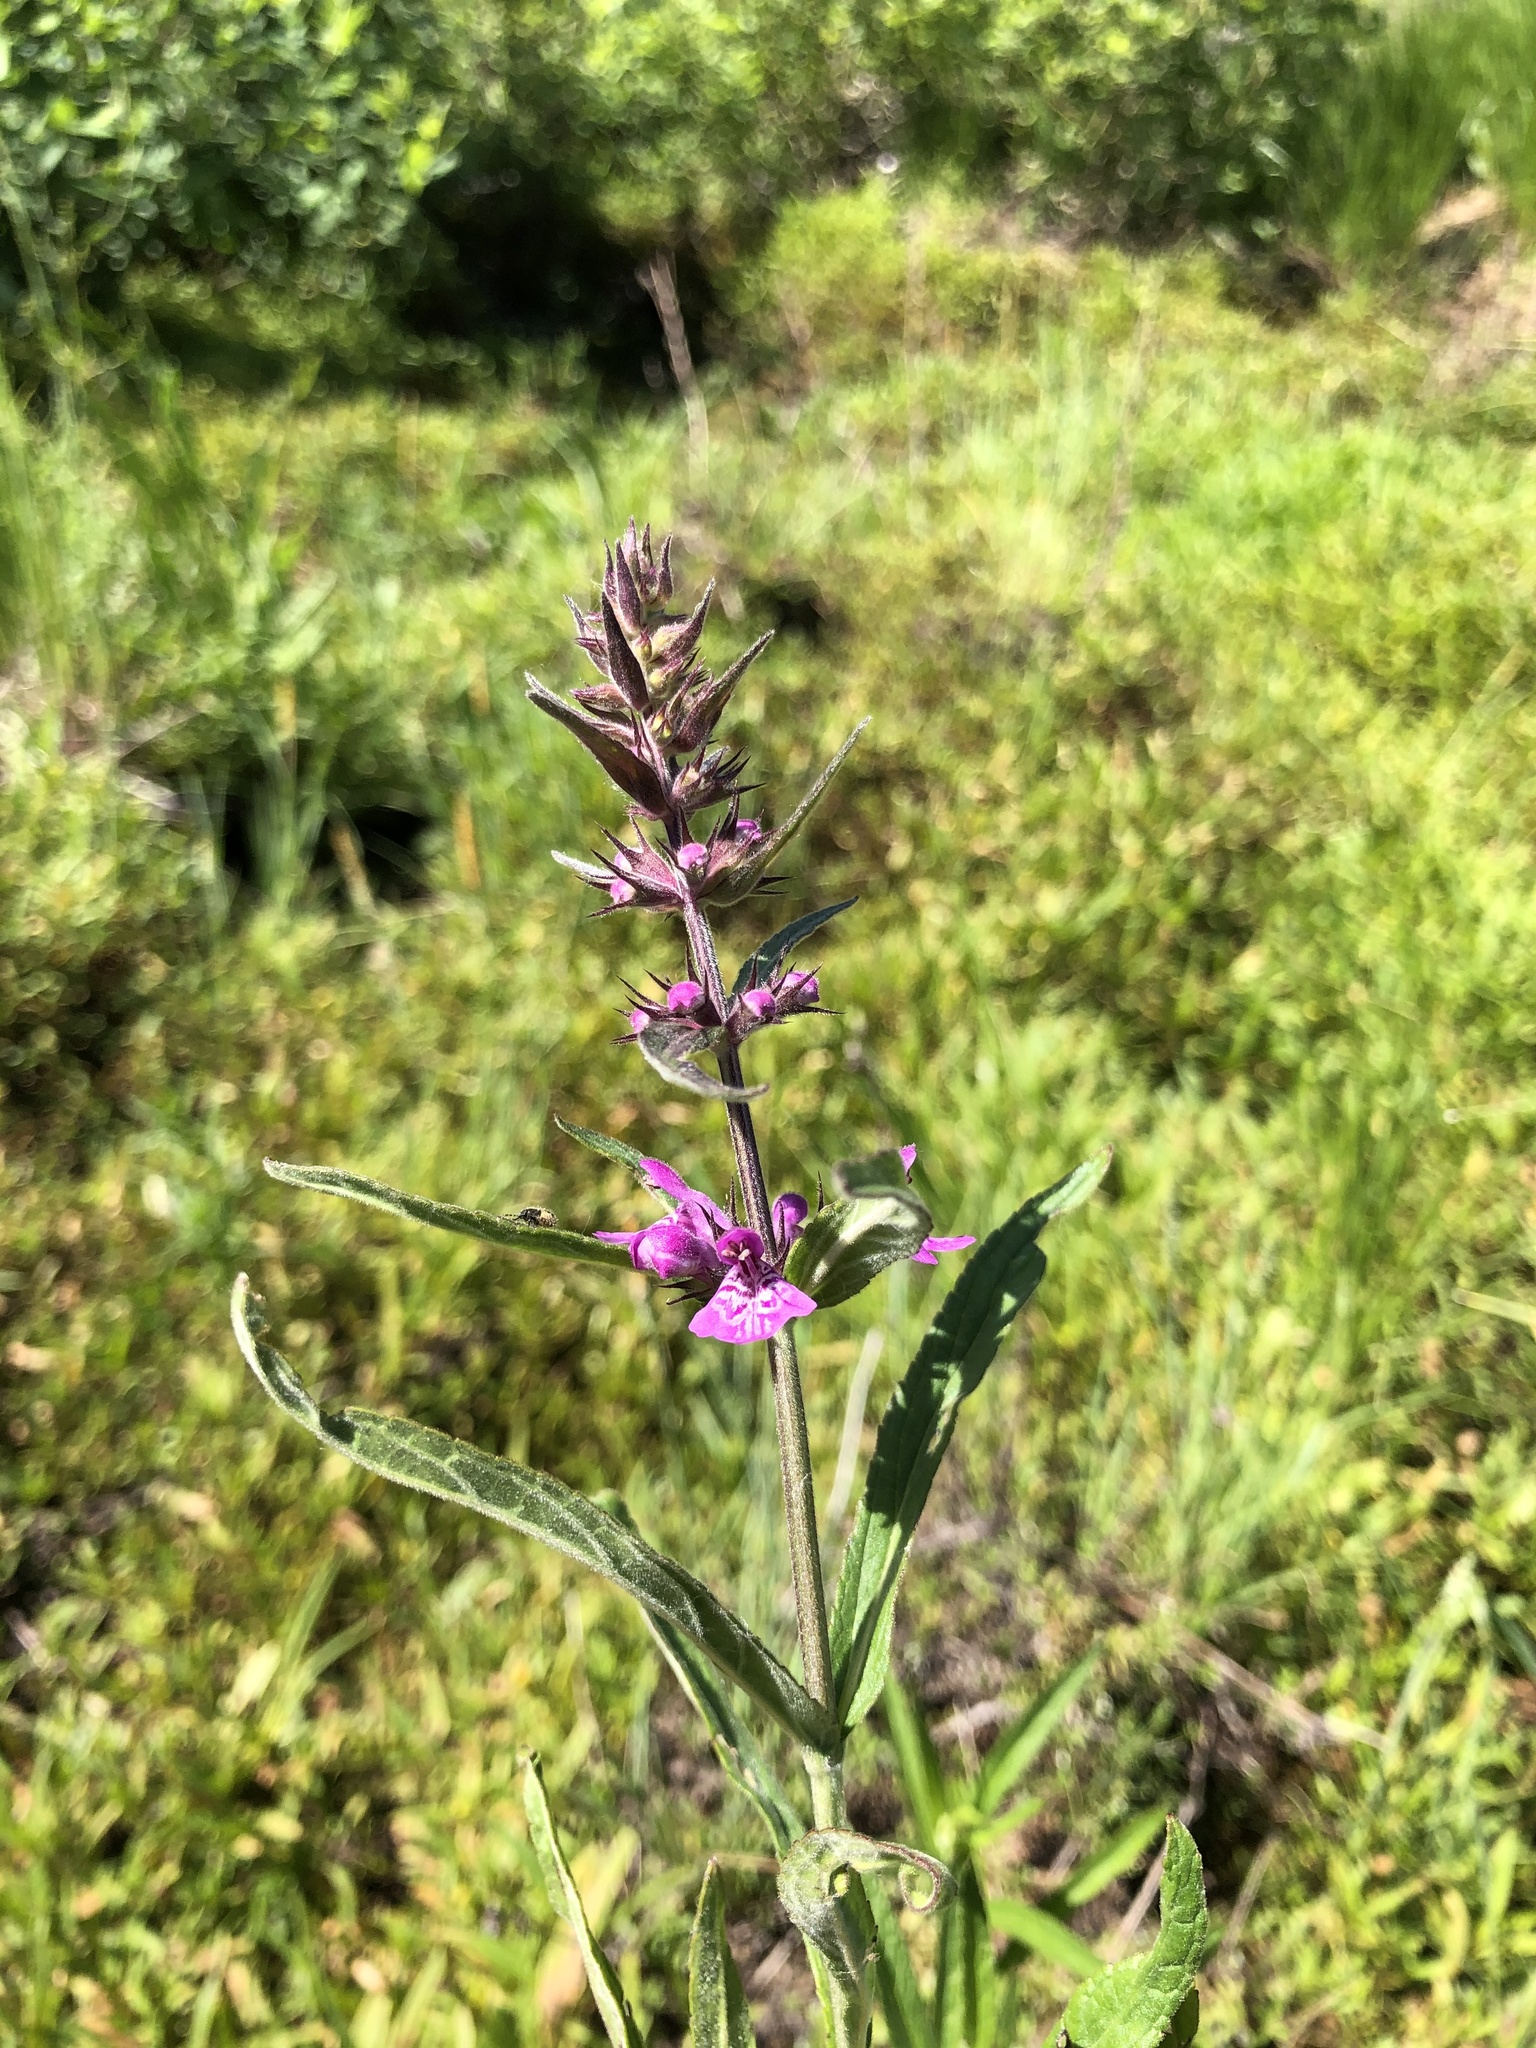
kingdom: Plantae
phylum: Tracheophyta
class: Magnoliopsida
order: Lamiales
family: Lamiaceae
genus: Stachys
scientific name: Stachys palustris
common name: Marsh woundwort
